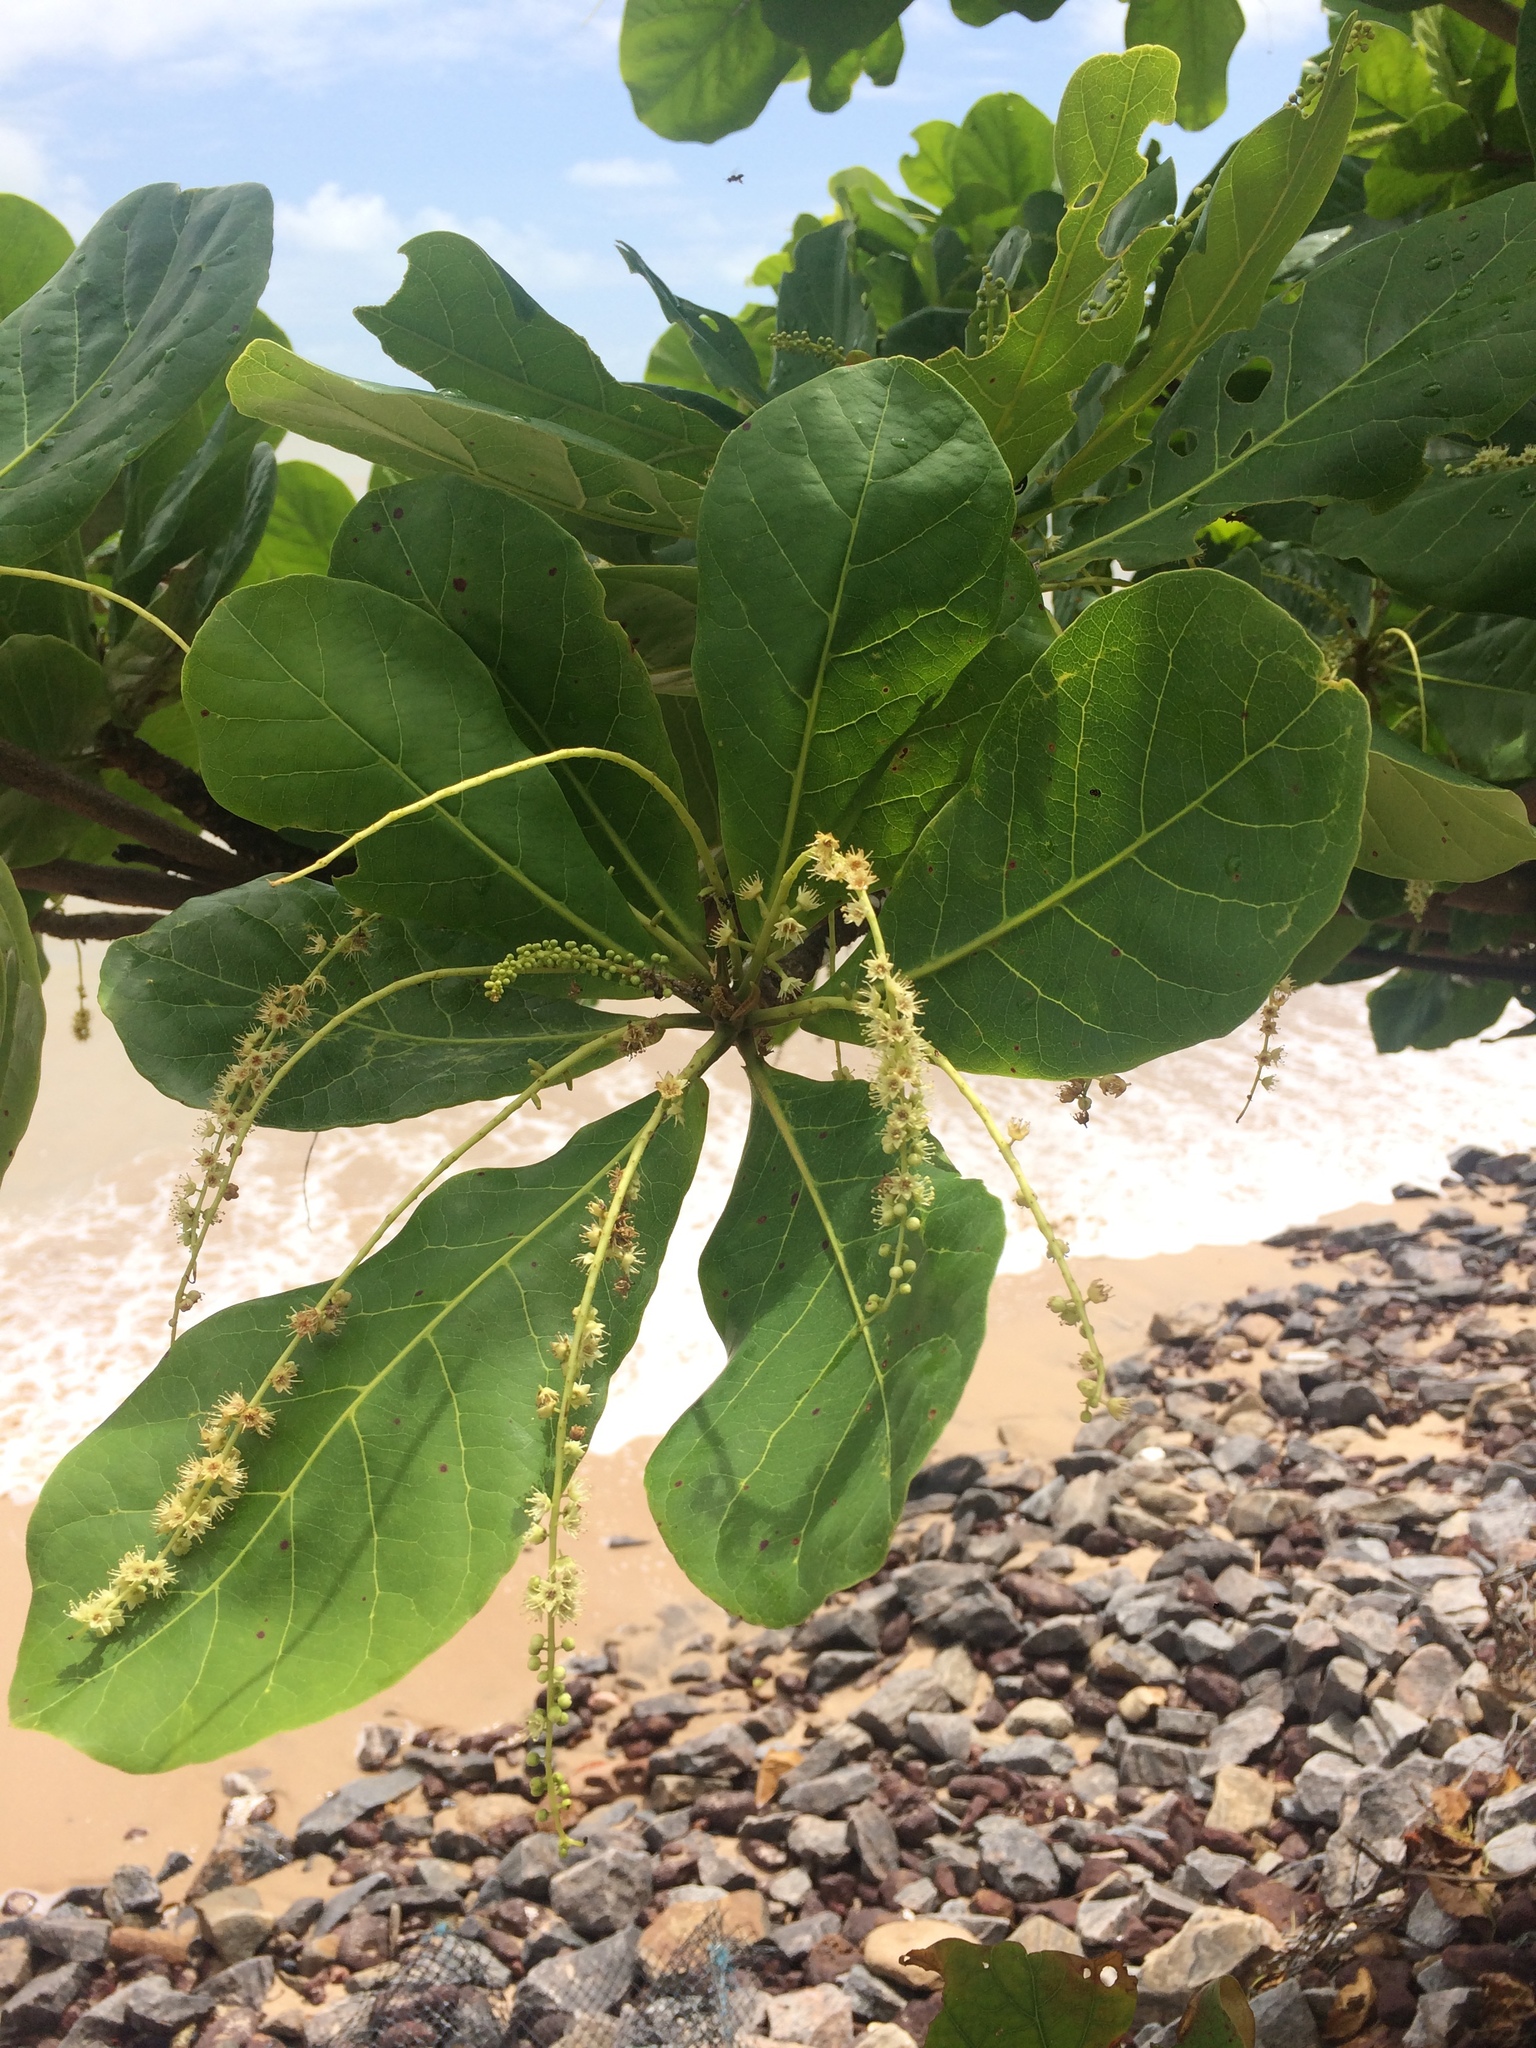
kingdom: Plantae
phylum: Tracheophyta
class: Magnoliopsida
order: Myrtales
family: Combretaceae
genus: Terminalia
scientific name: Terminalia catappa
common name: Tropical almond
